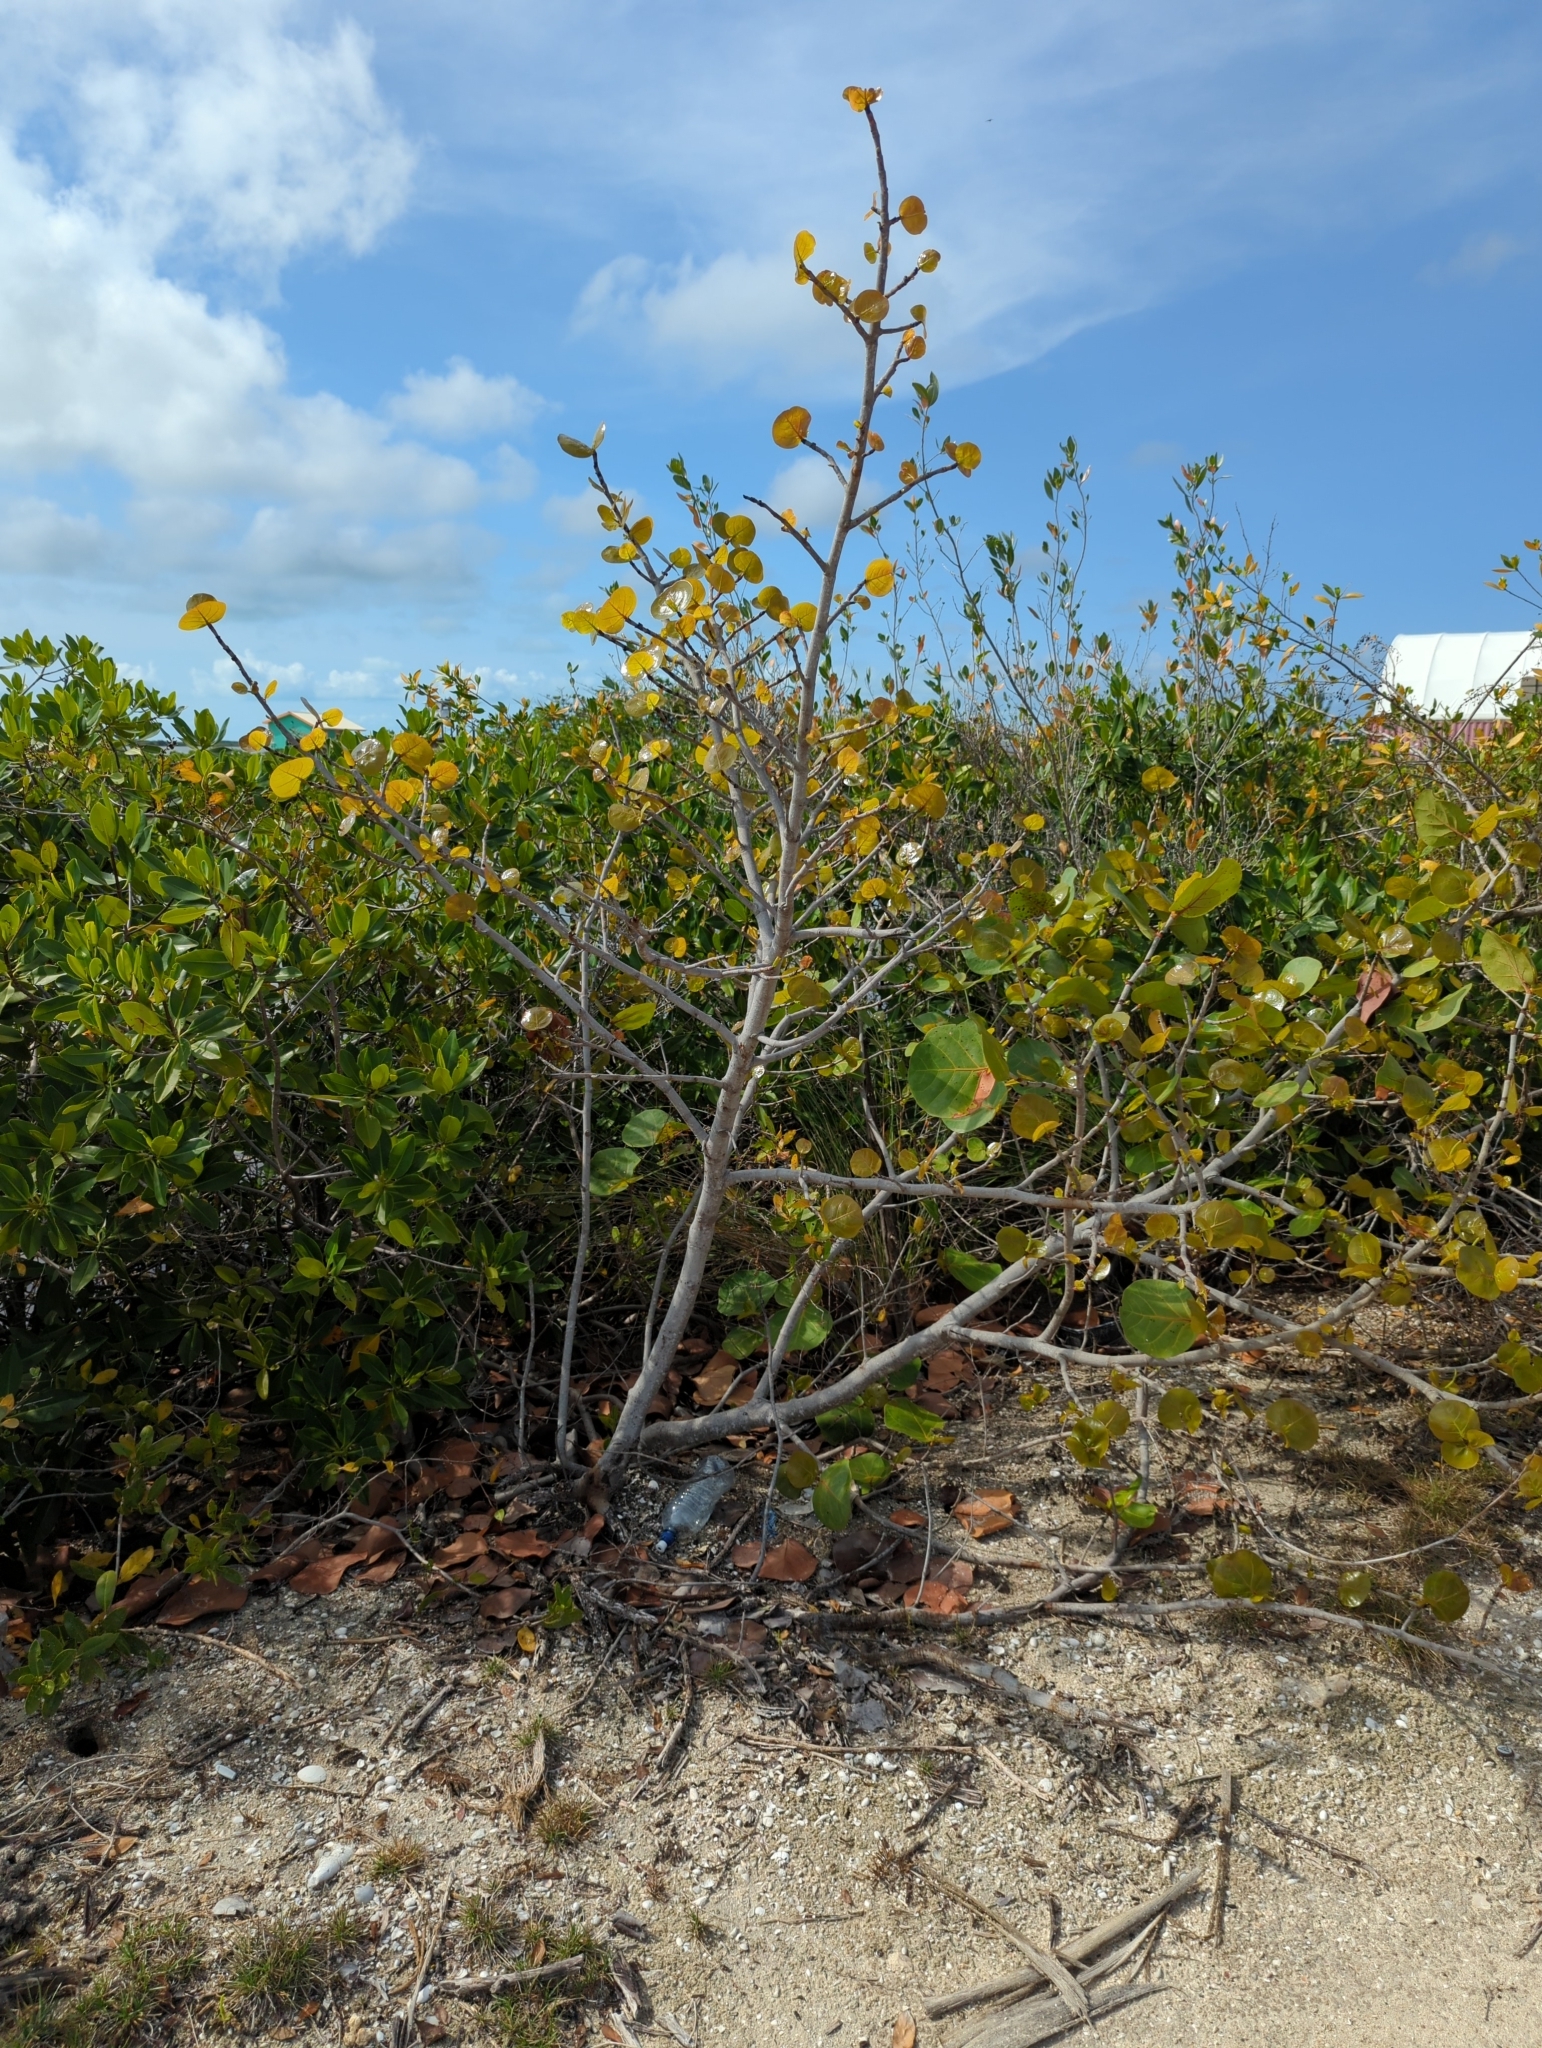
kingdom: Plantae
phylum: Tracheophyta
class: Magnoliopsida
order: Caryophyllales
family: Polygonaceae
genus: Coccoloba
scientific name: Coccoloba uvifera
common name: Seagrape
